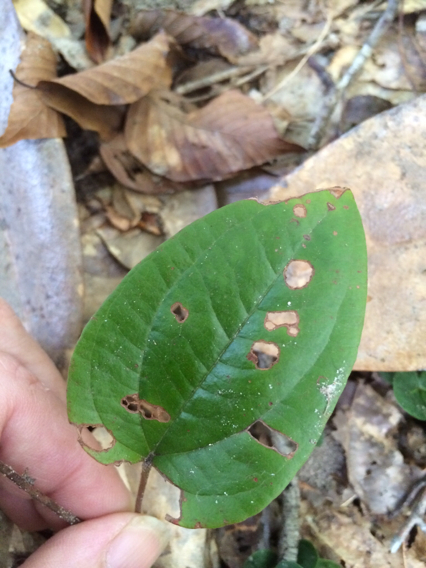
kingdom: Plantae
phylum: Tracheophyta
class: Liliopsida
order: Liliales
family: Smilacaceae
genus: Smilax
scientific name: Smilax pumila
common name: Sarsaparilla-vine
